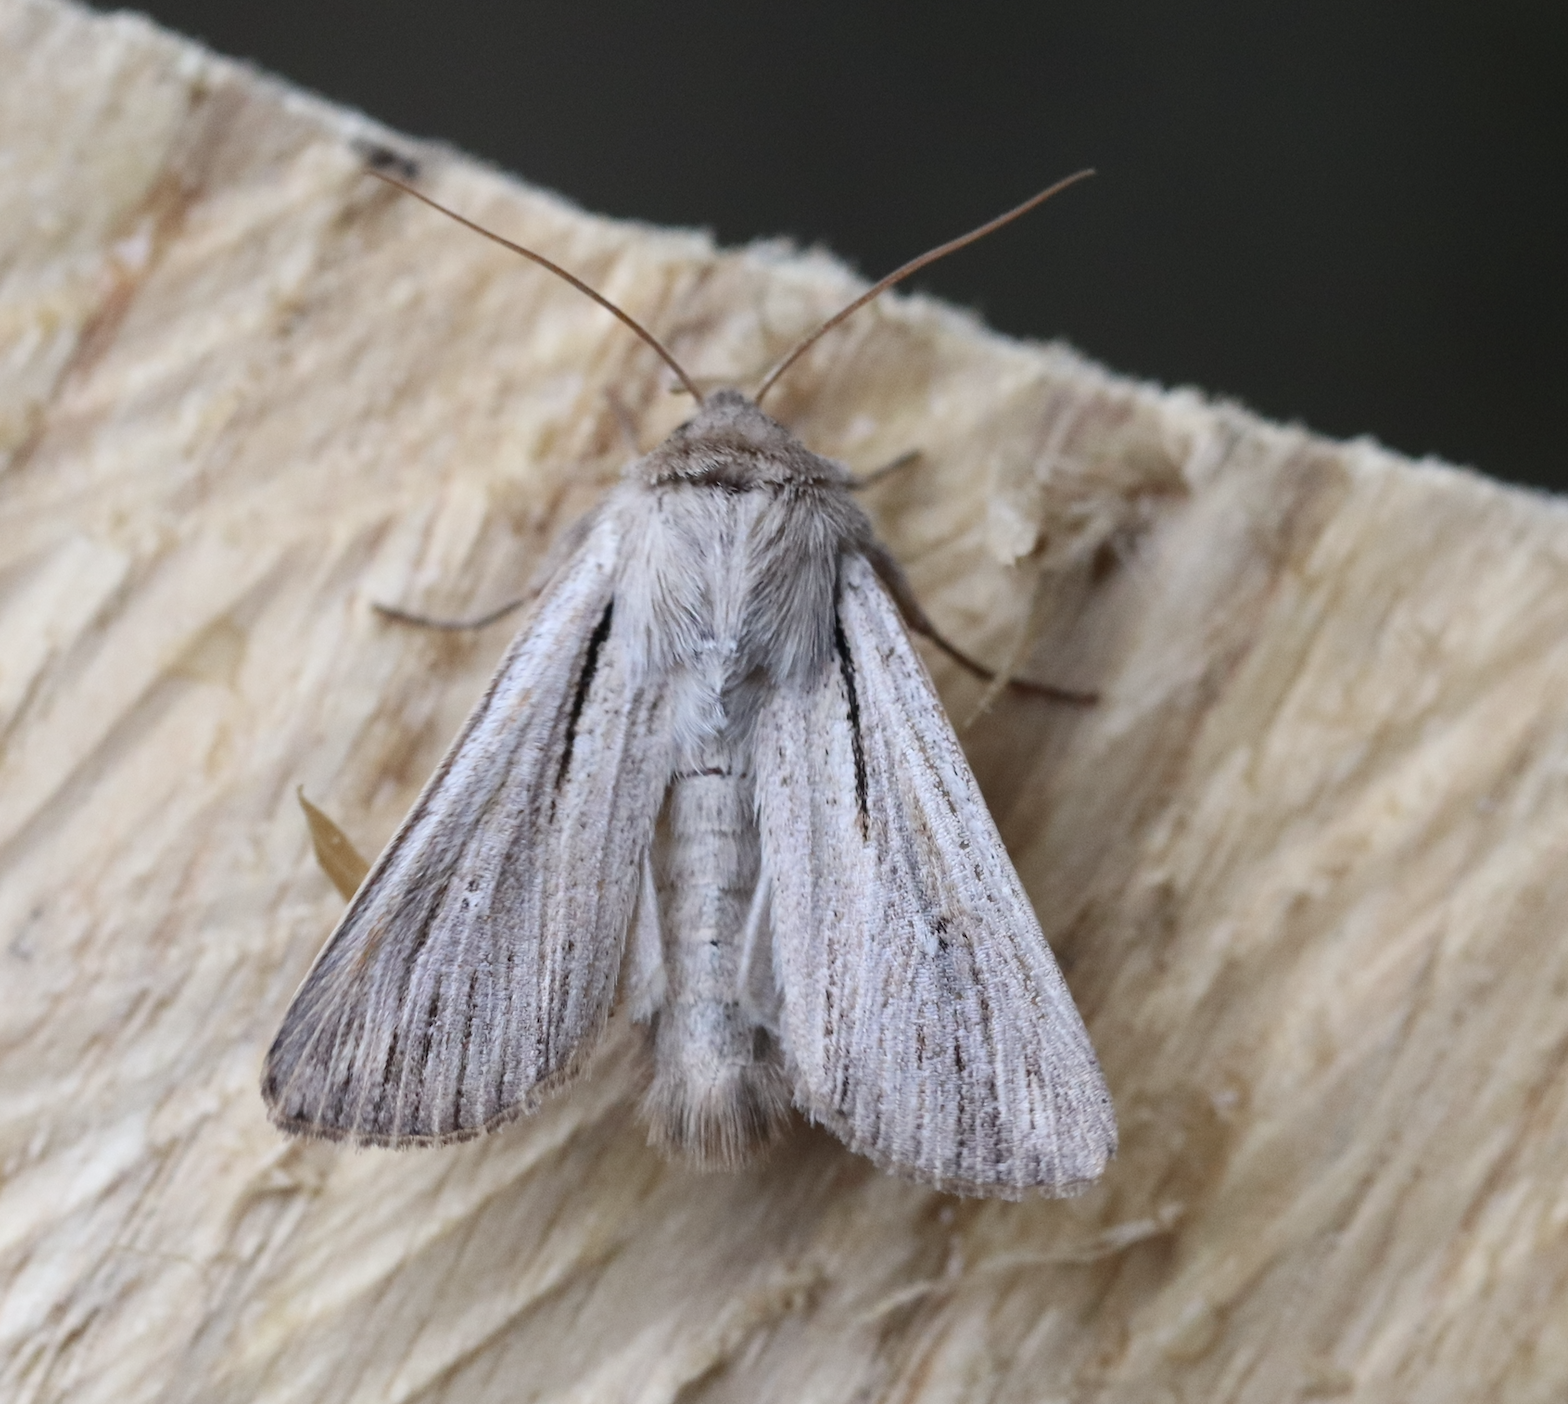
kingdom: Animalia
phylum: Arthropoda
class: Insecta
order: Lepidoptera
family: Noctuidae
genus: Leucania
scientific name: Leucania comma
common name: Shoulder-striped wainscot
